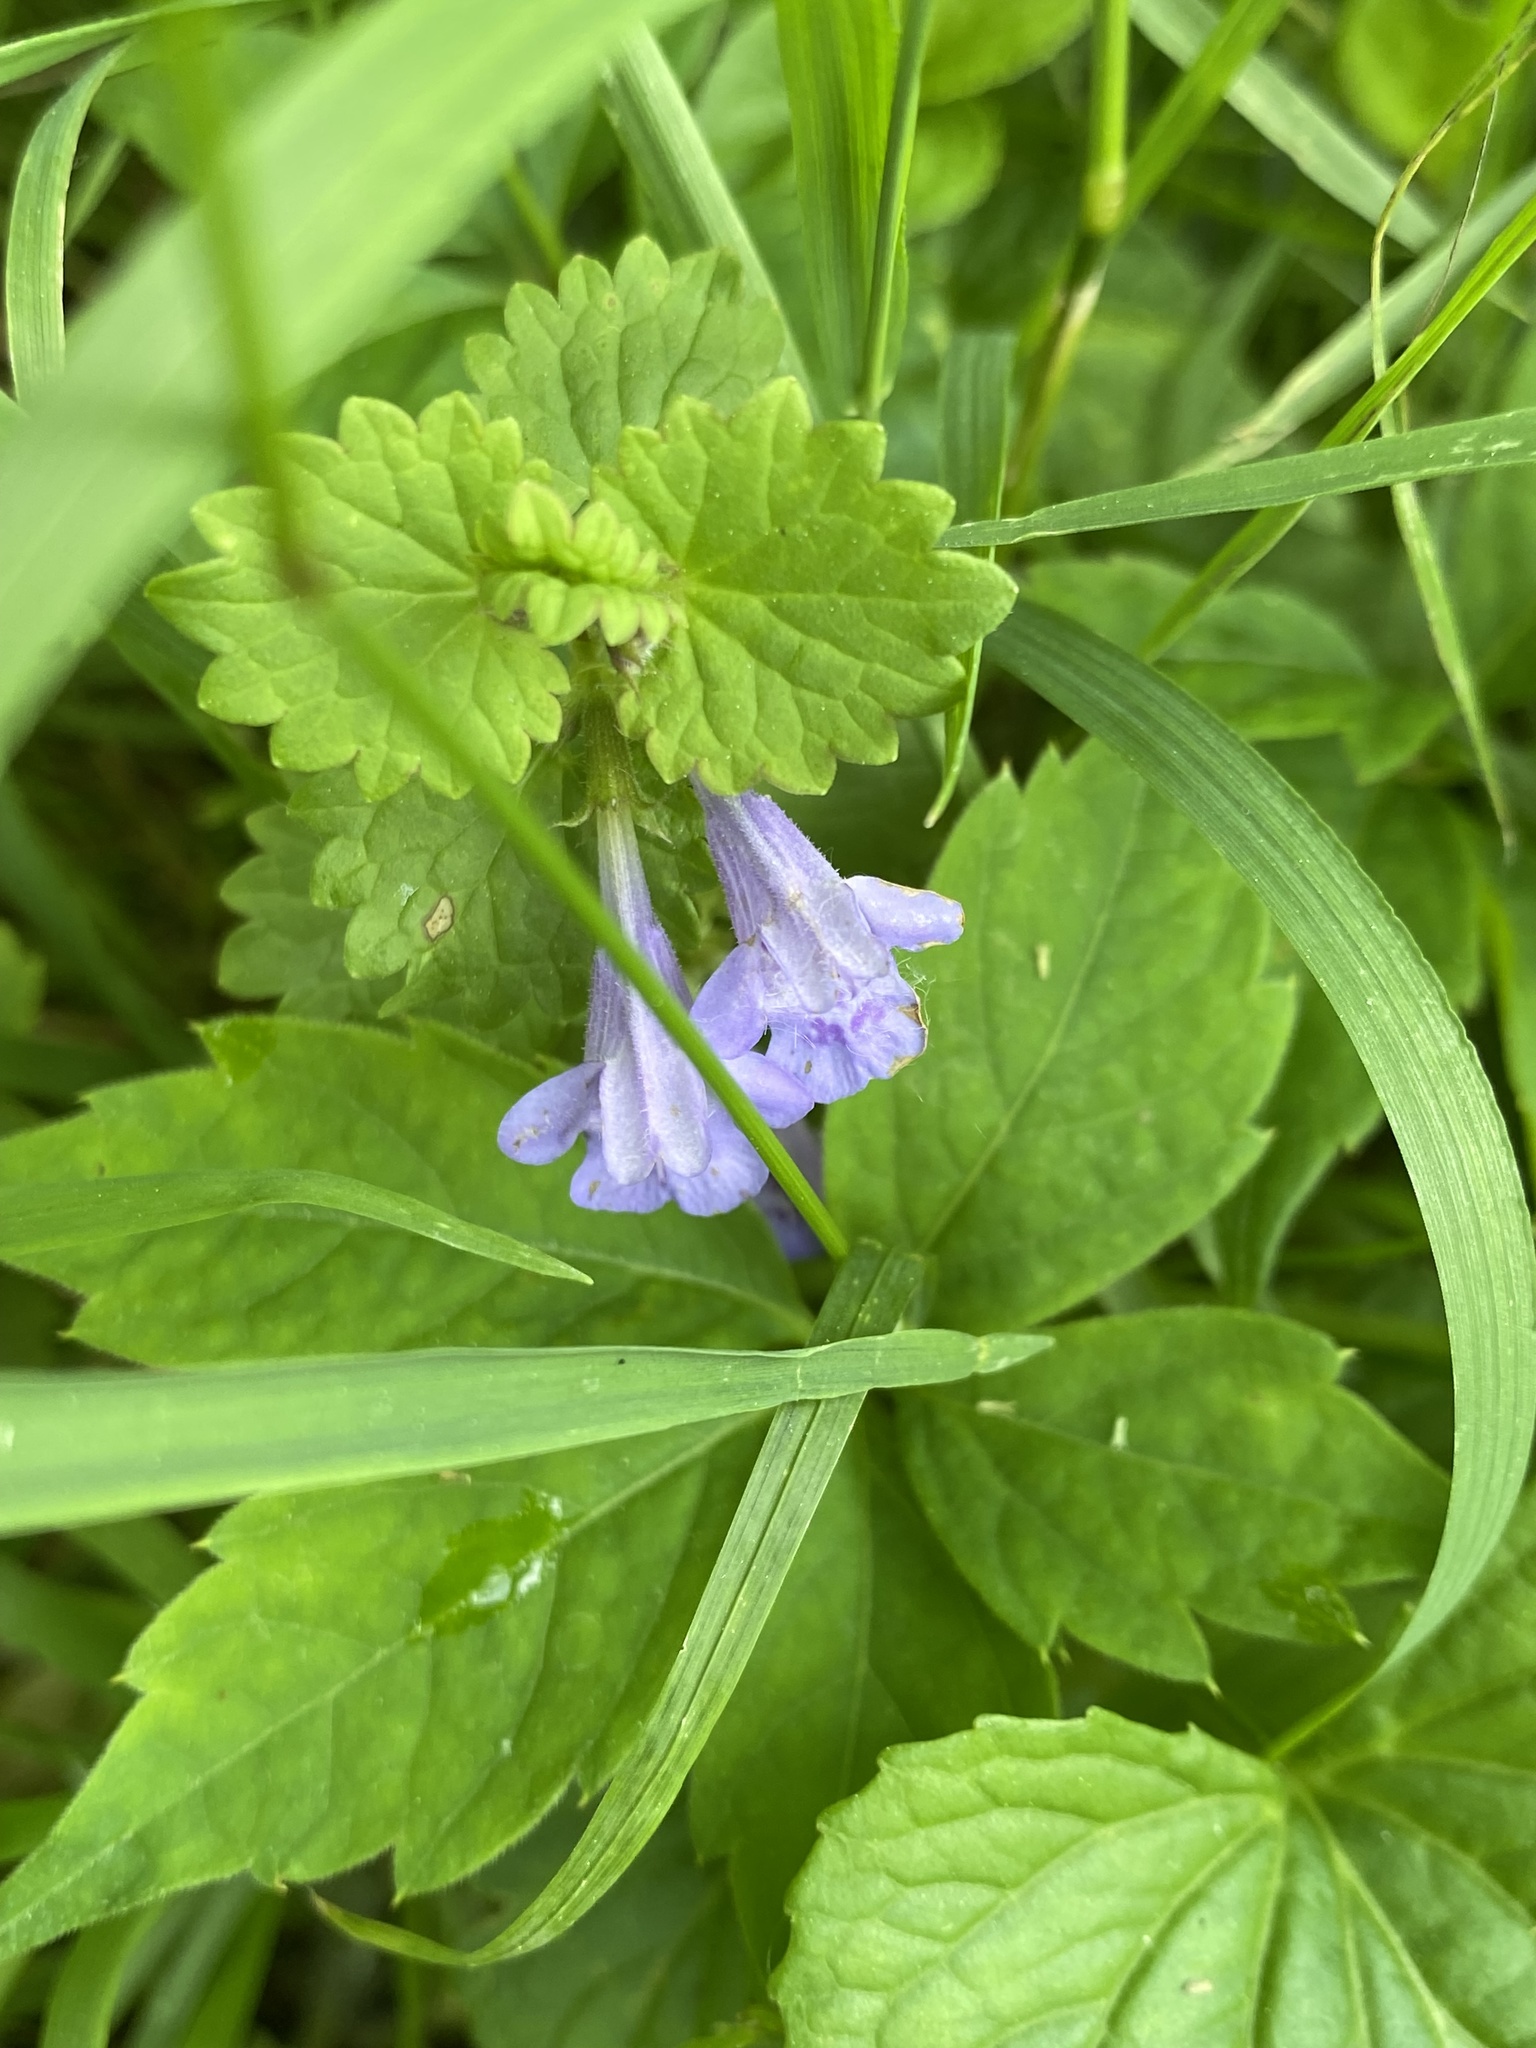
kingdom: Plantae
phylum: Tracheophyta
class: Magnoliopsida
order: Lamiales
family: Lamiaceae
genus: Glechoma
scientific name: Glechoma hederacea
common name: Ground ivy
